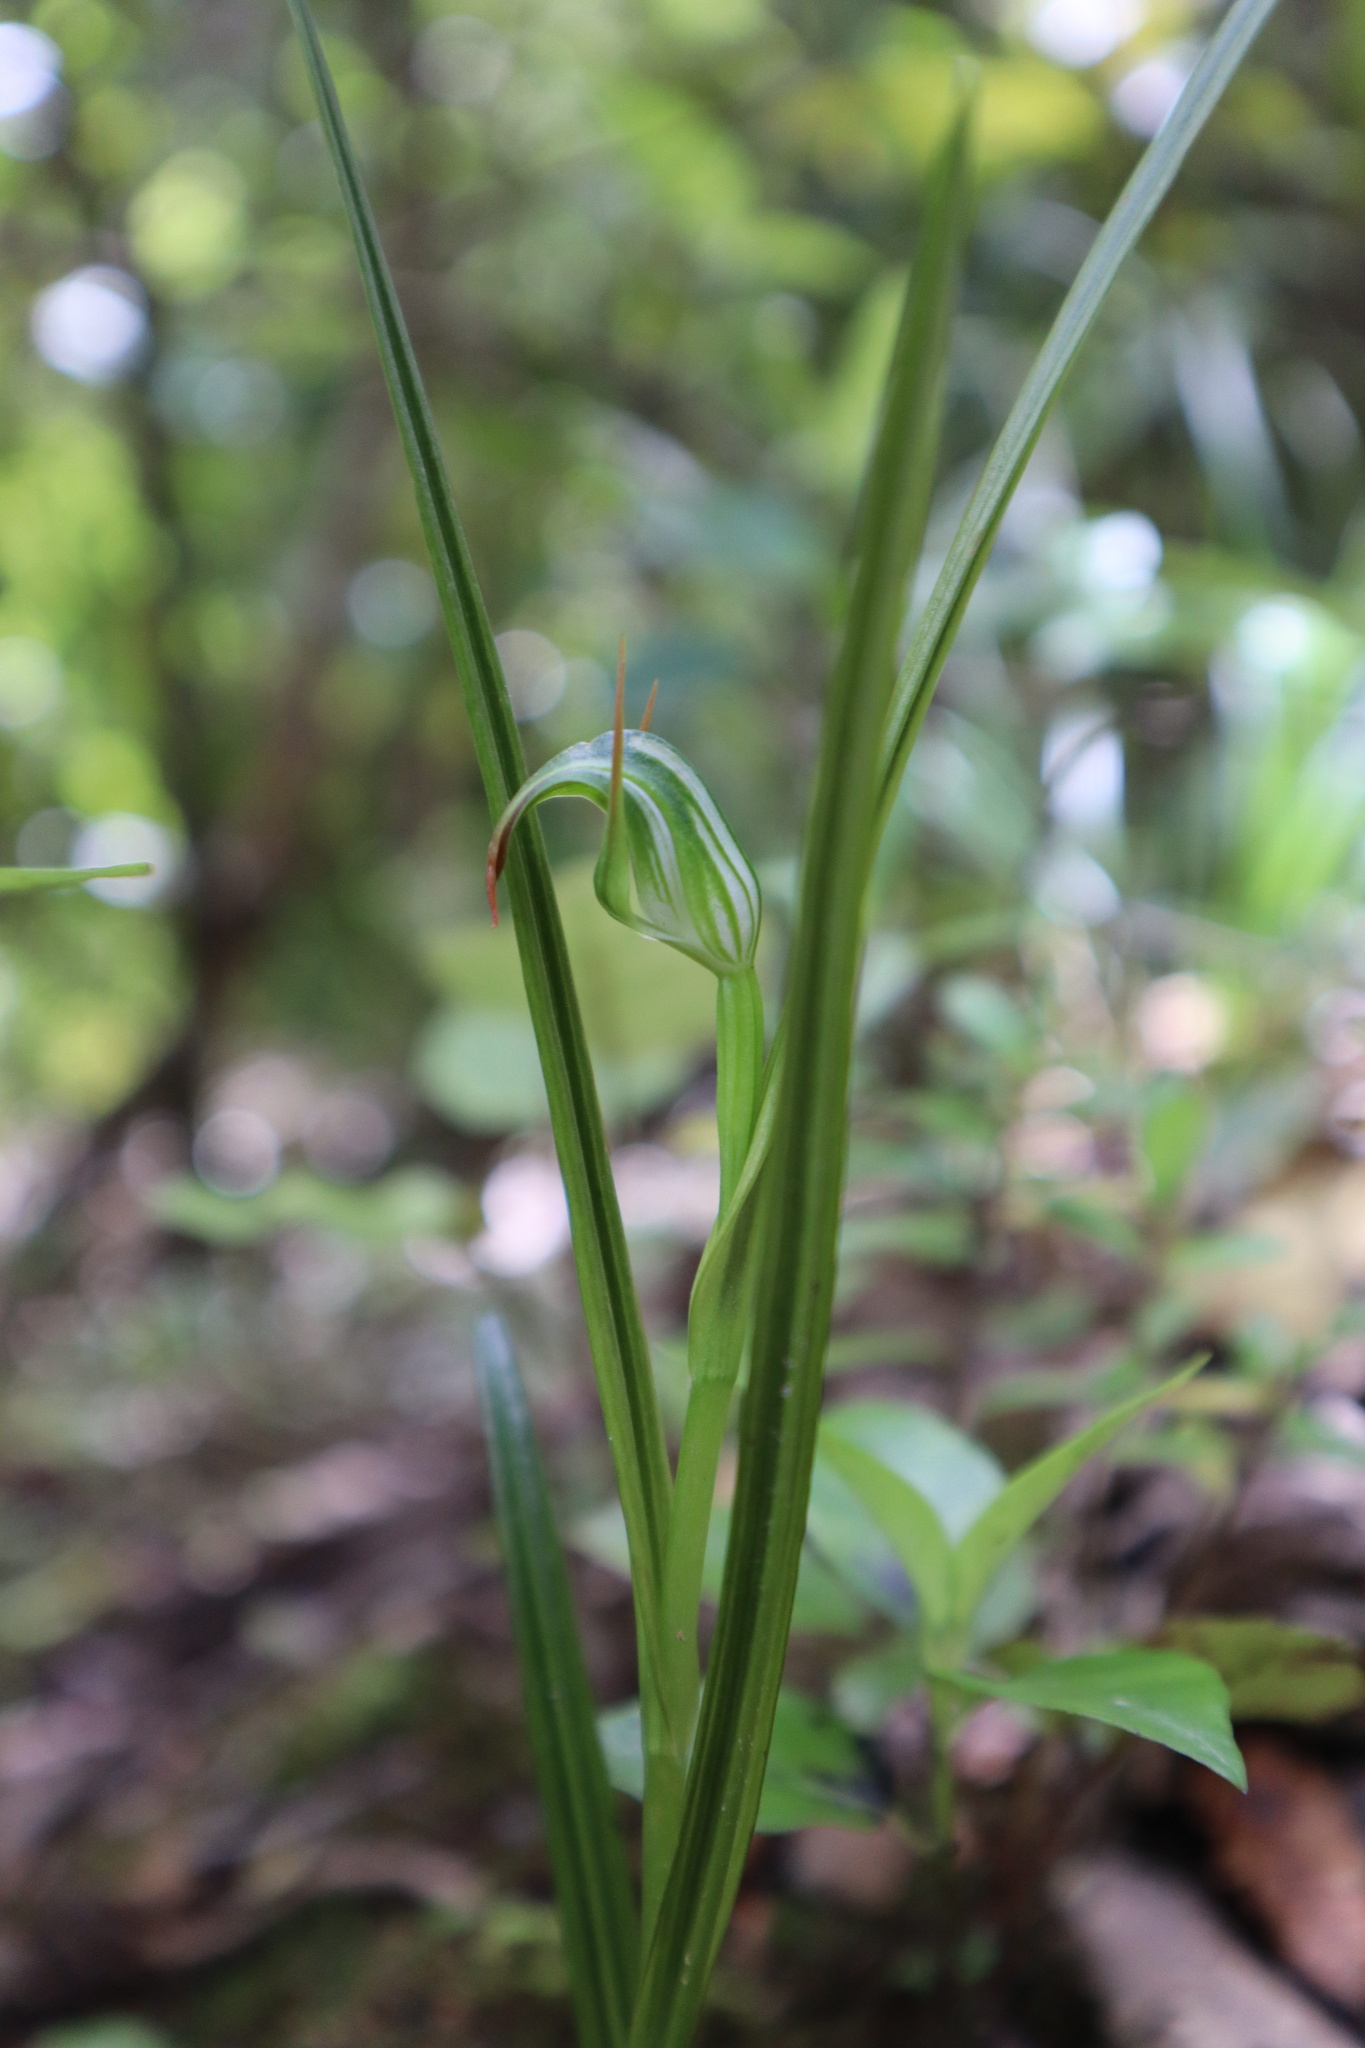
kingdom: Plantae
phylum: Tracheophyta
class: Liliopsida
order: Asparagales
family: Orchidaceae
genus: Pterostylis
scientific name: Pterostylis graminea
